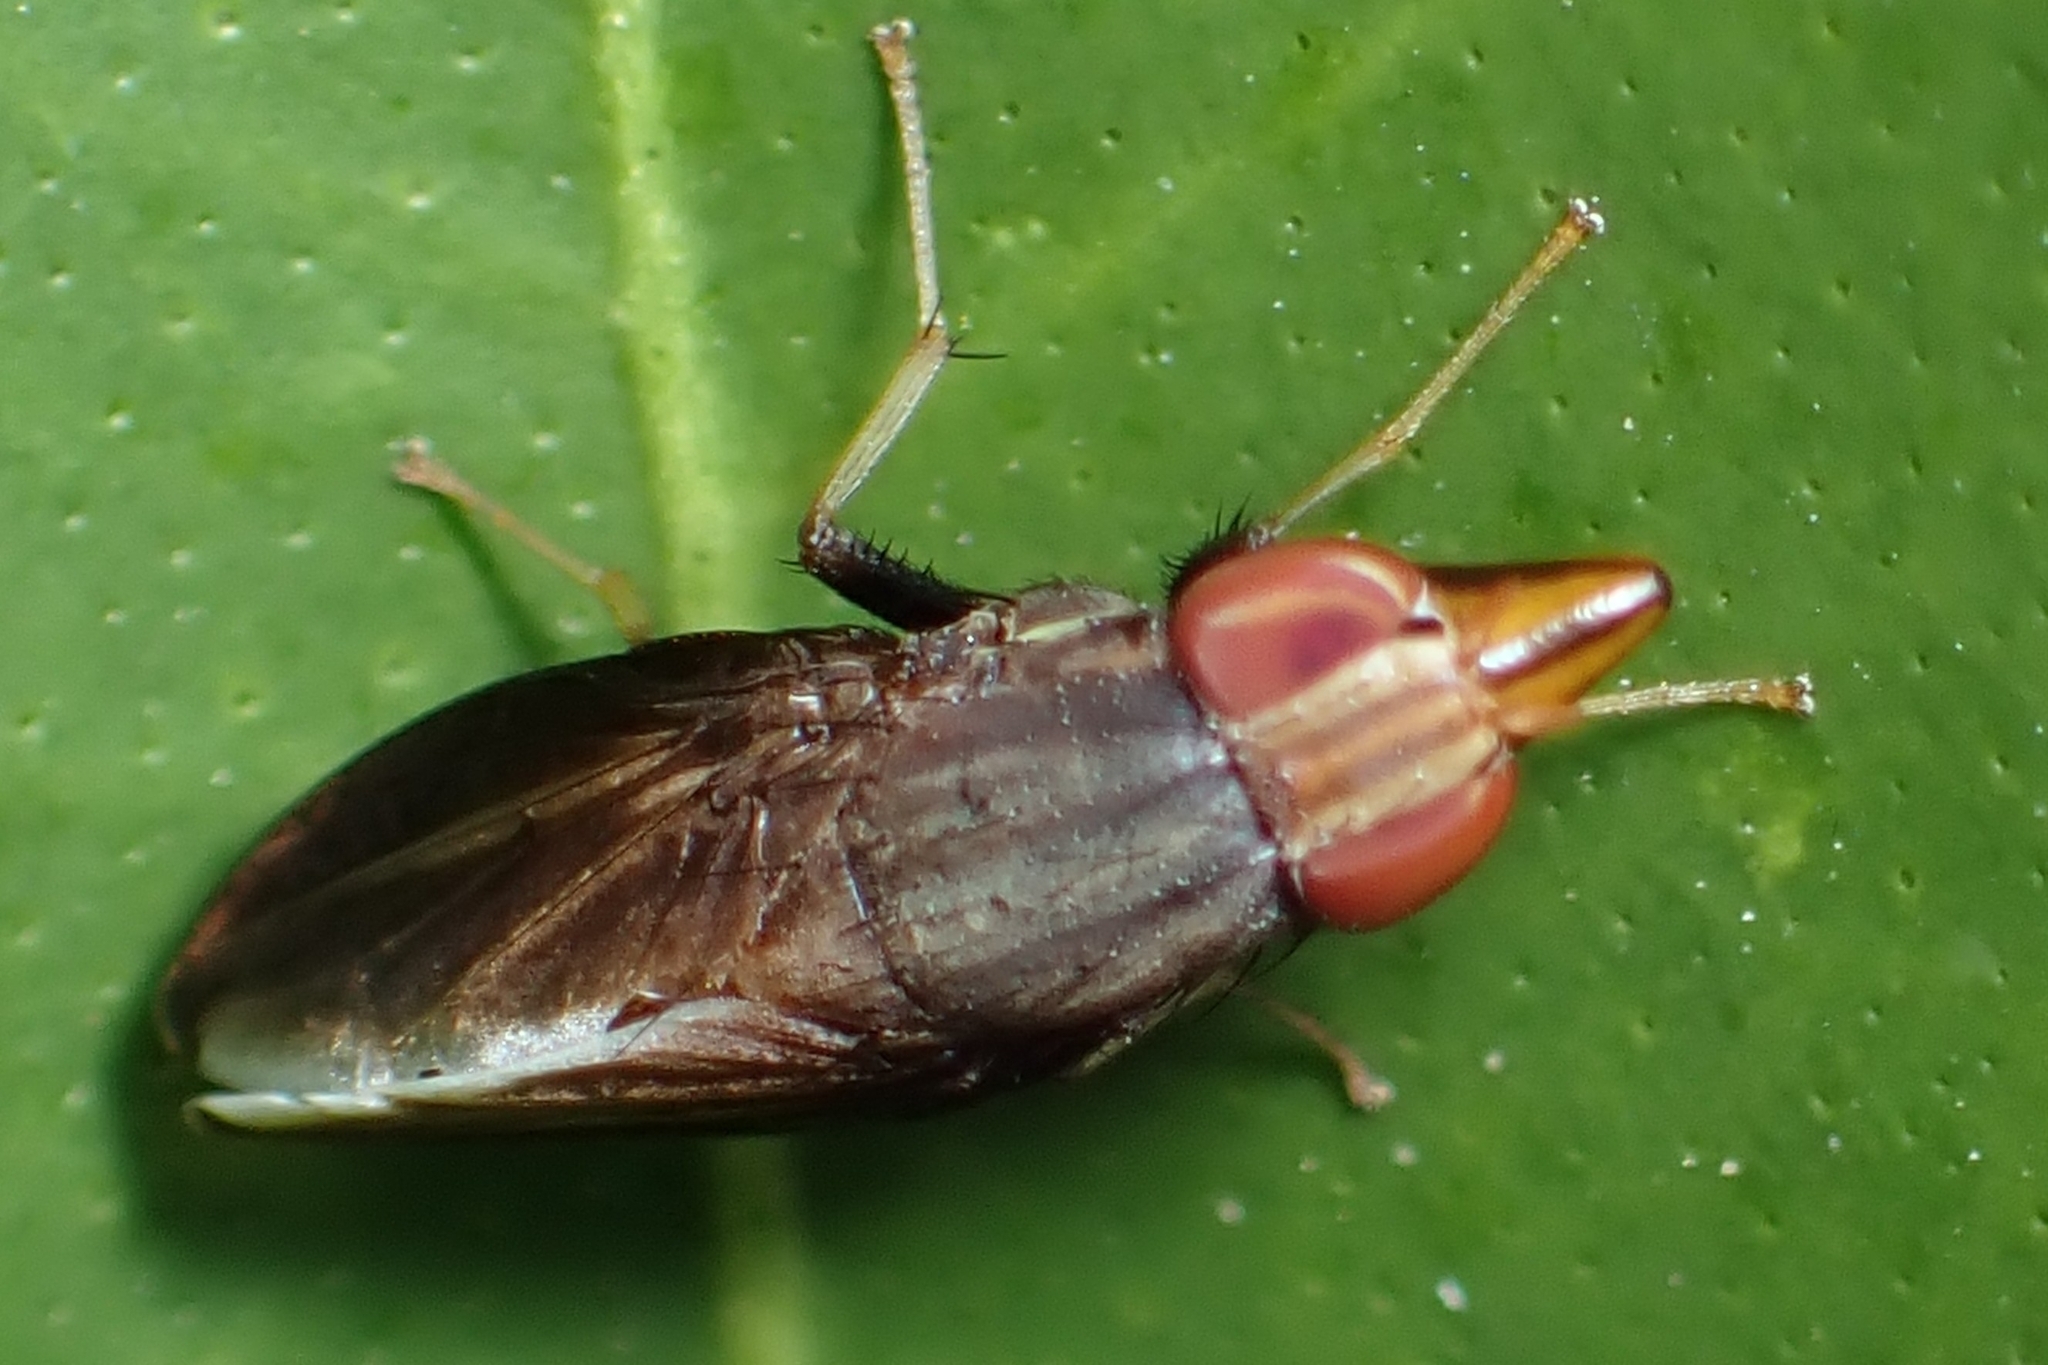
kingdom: Animalia
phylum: Arthropoda
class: Insecta
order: Diptera
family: Lauxaniidae
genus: Cephaloconus
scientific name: Cephaloconus tenebrosus
